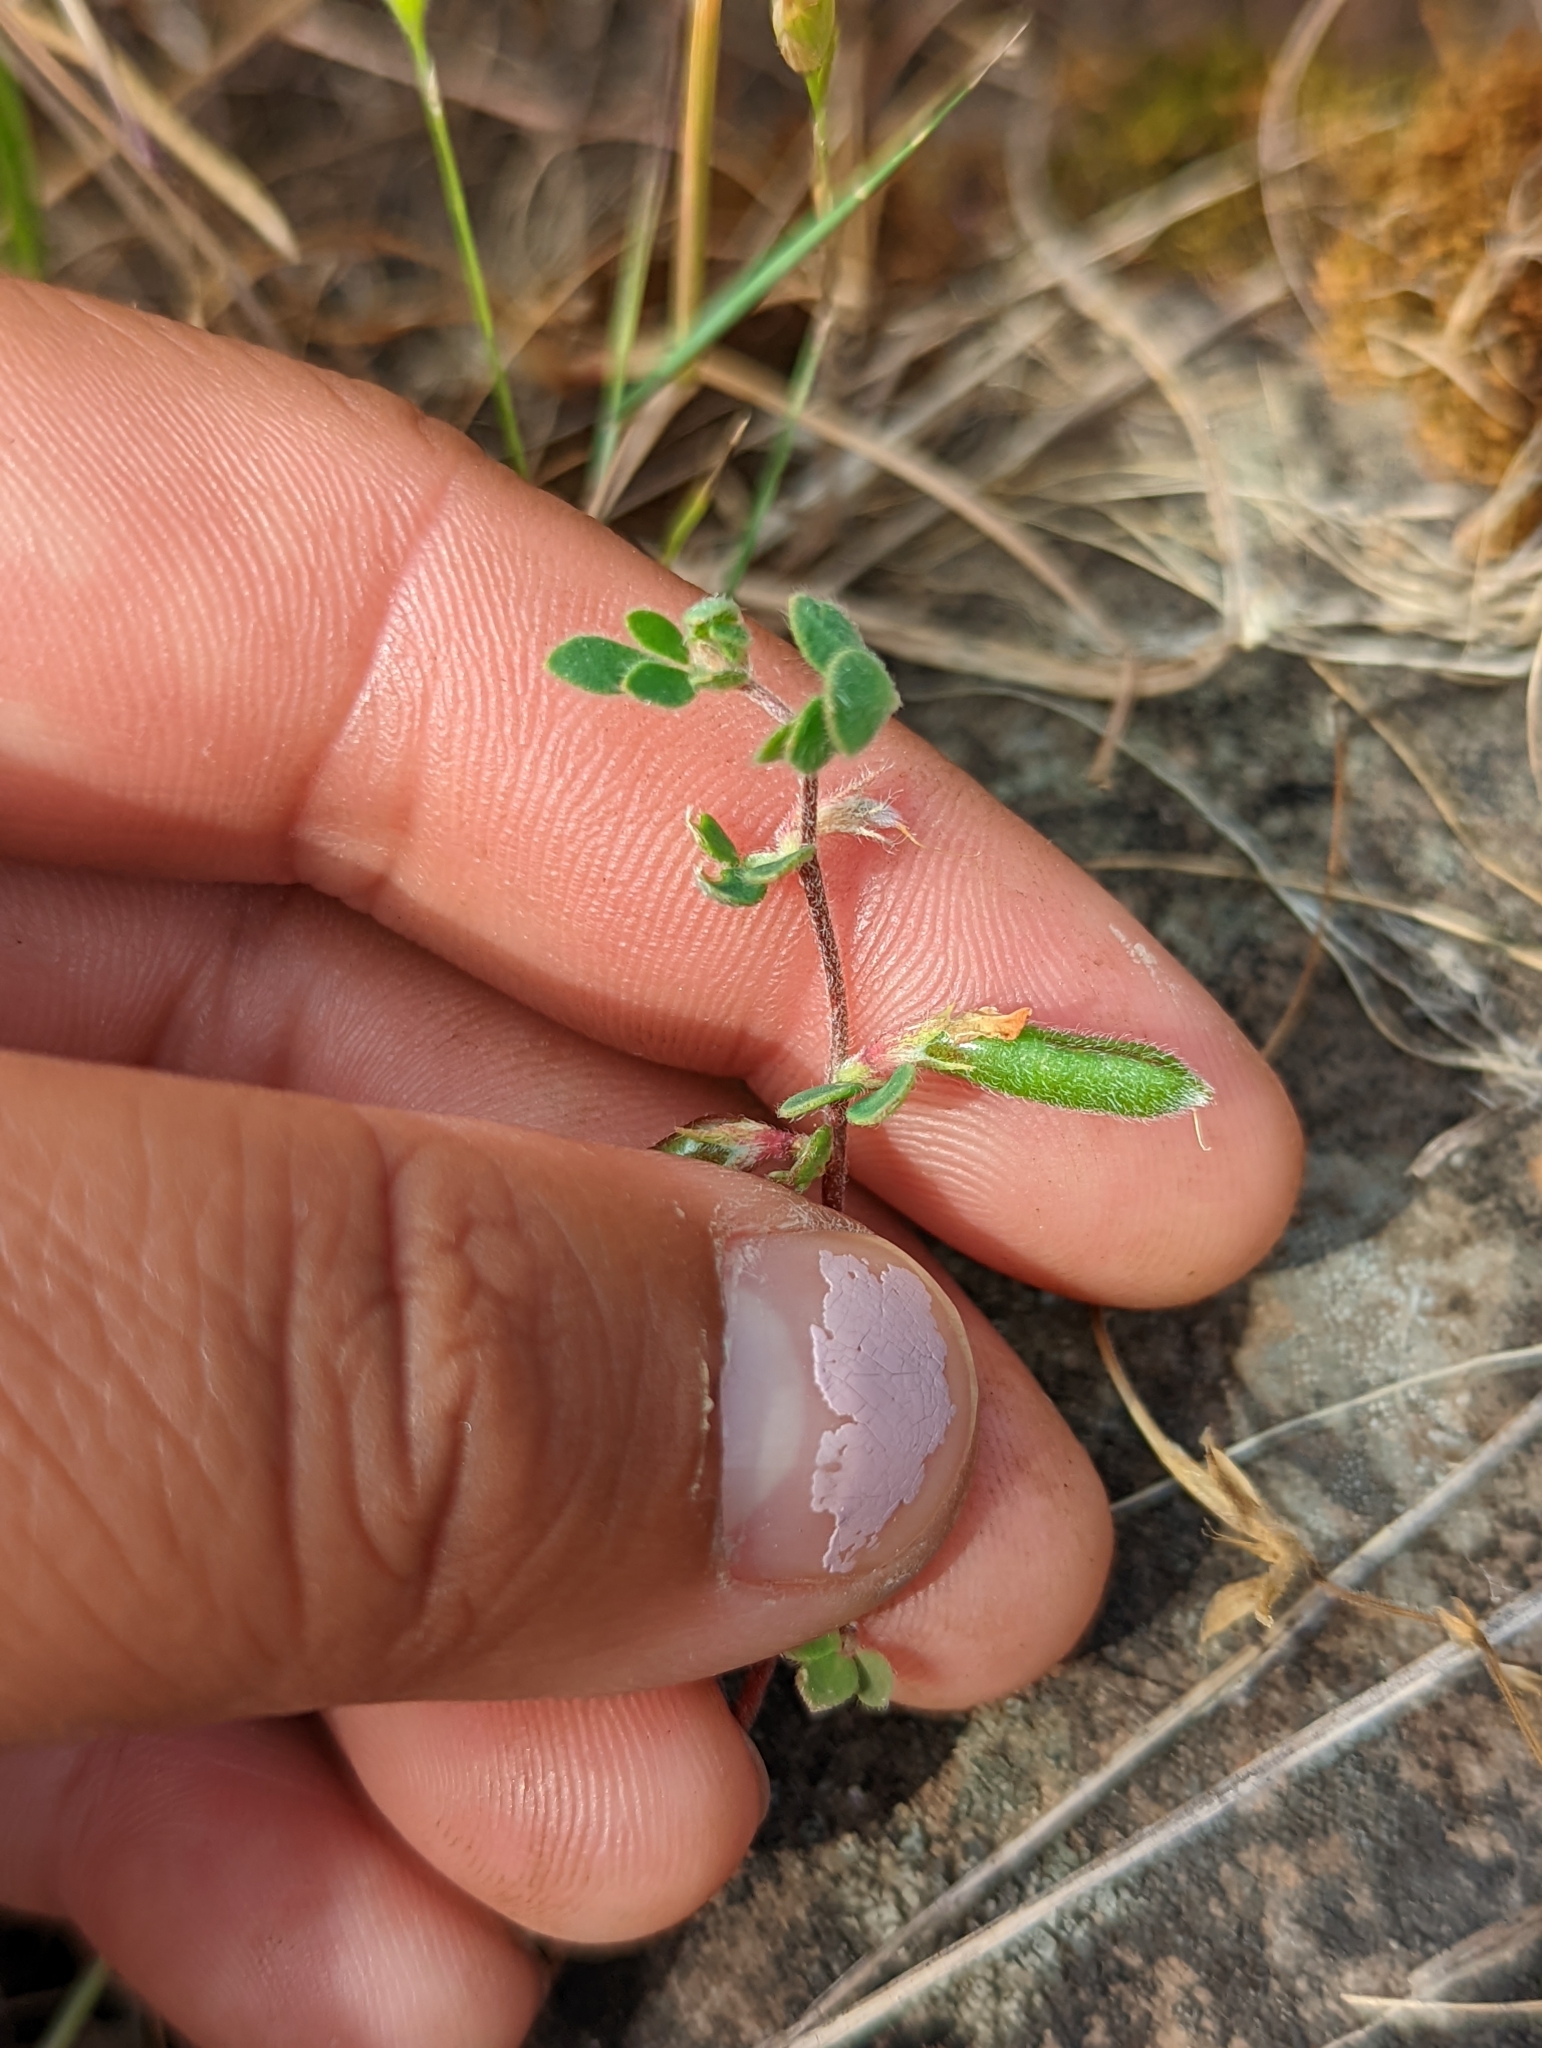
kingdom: Plantae
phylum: Tracheophyta
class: Magnoliopsida
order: Fabales
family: Fabaceae
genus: Acmispon
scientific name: Acmispon wrangelianus
